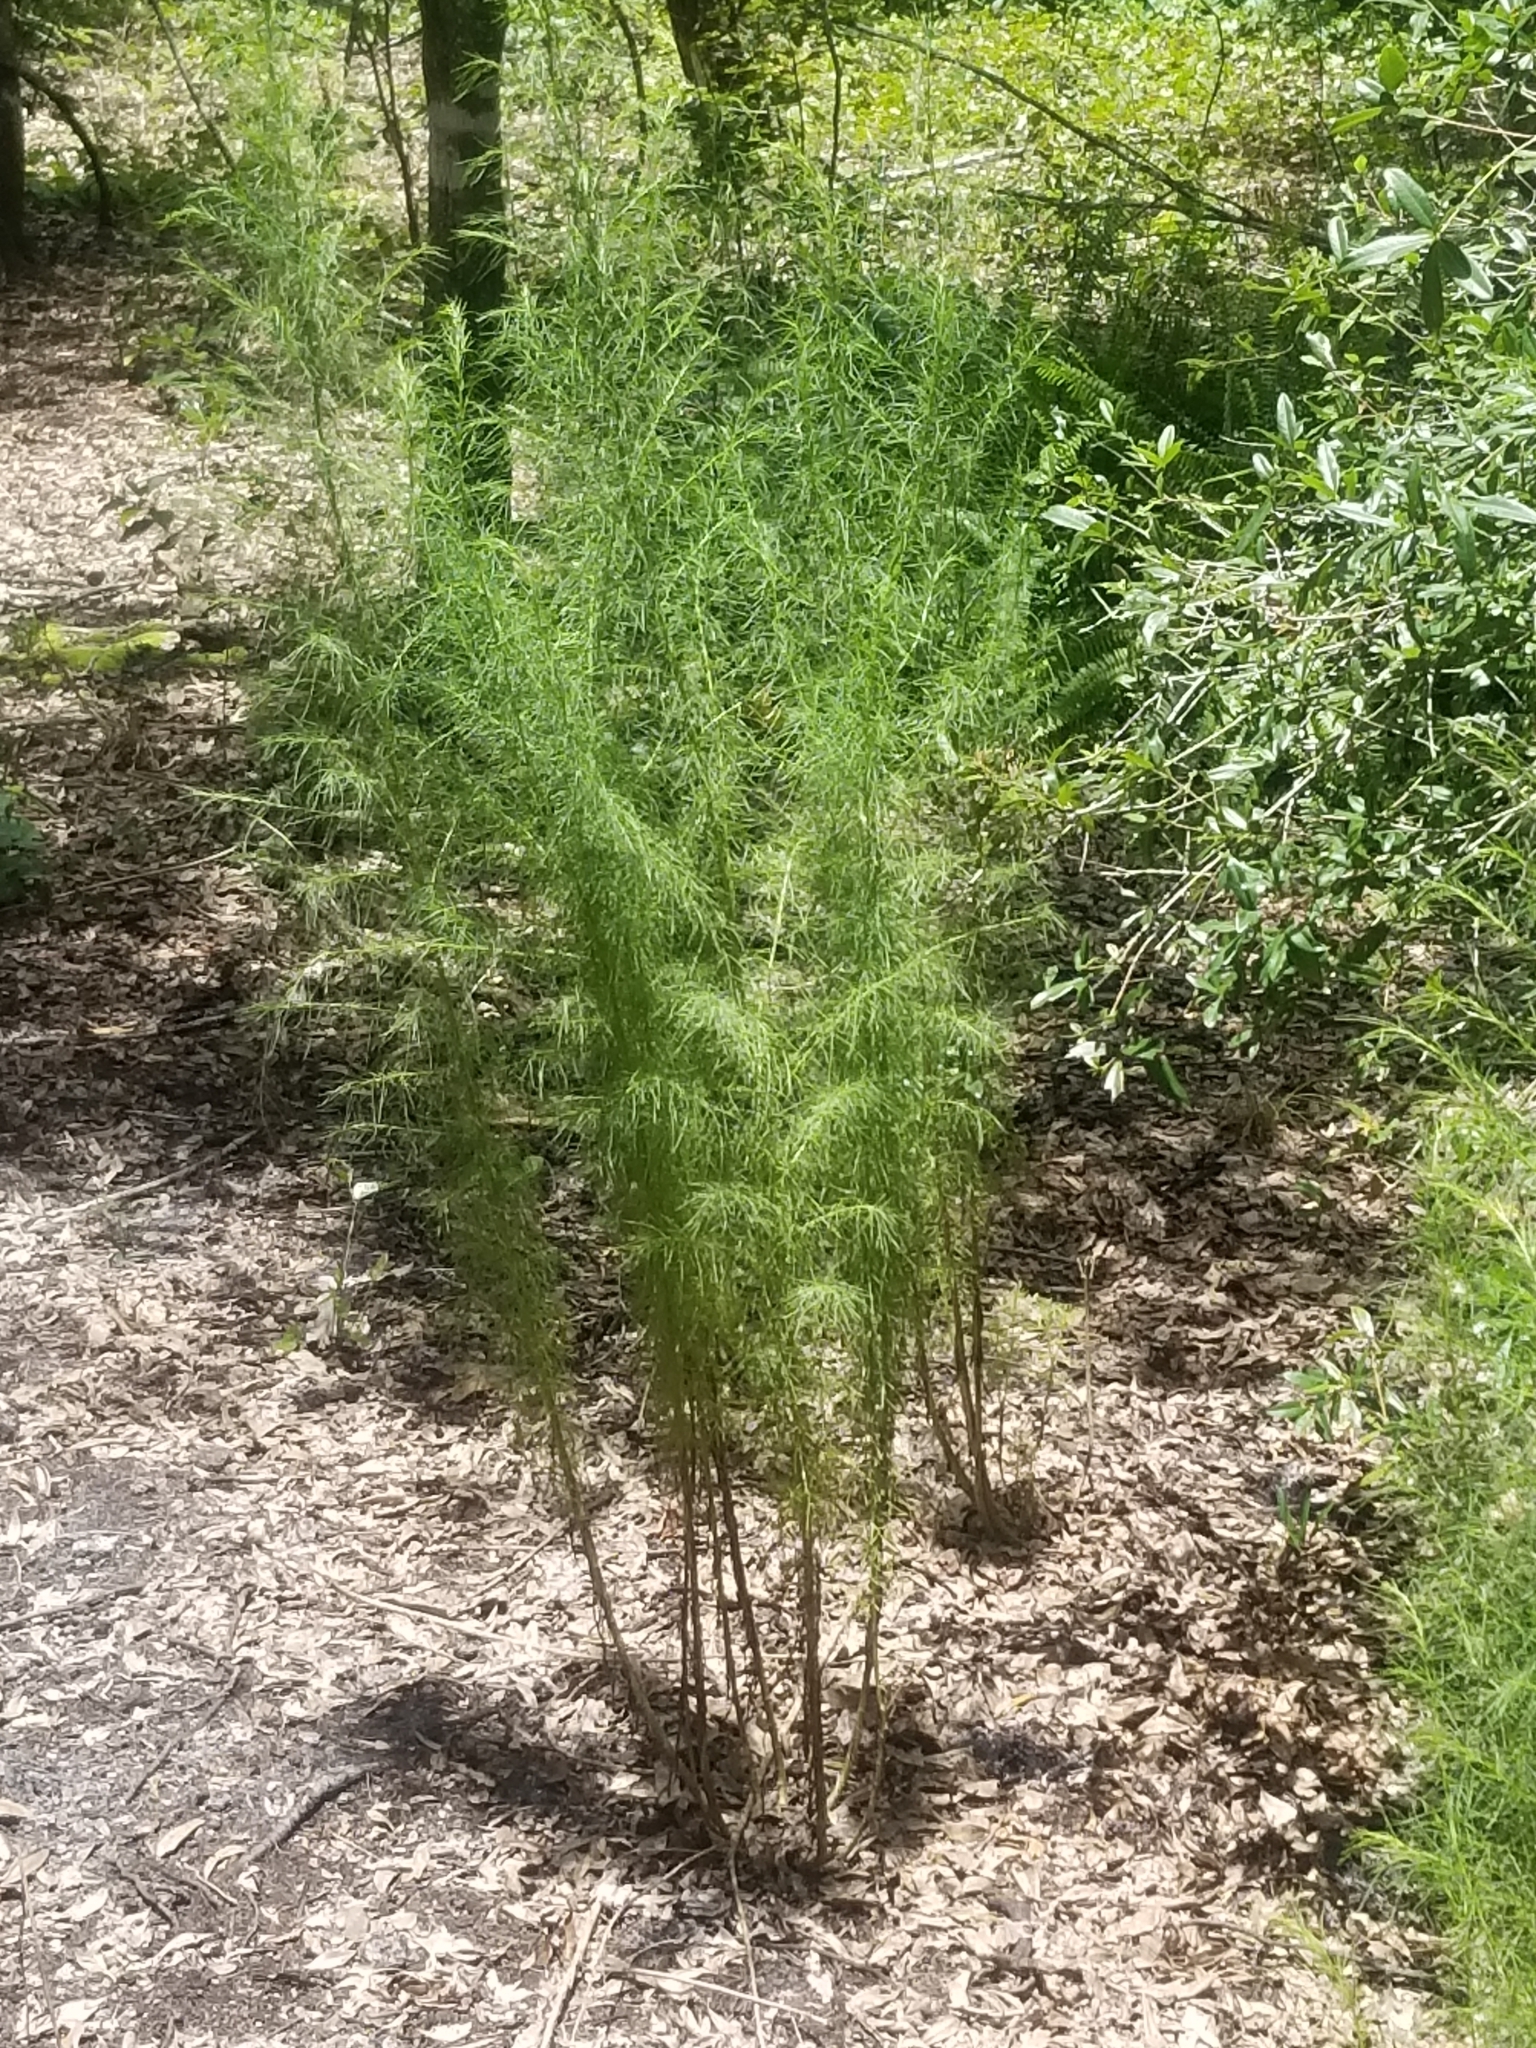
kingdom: Plantae
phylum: Tracheophyta
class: Magnoliopsida
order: Asterales
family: Asteraceae
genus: Eupatorium
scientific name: Eupatorium capillifolium
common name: Dog-fennel
